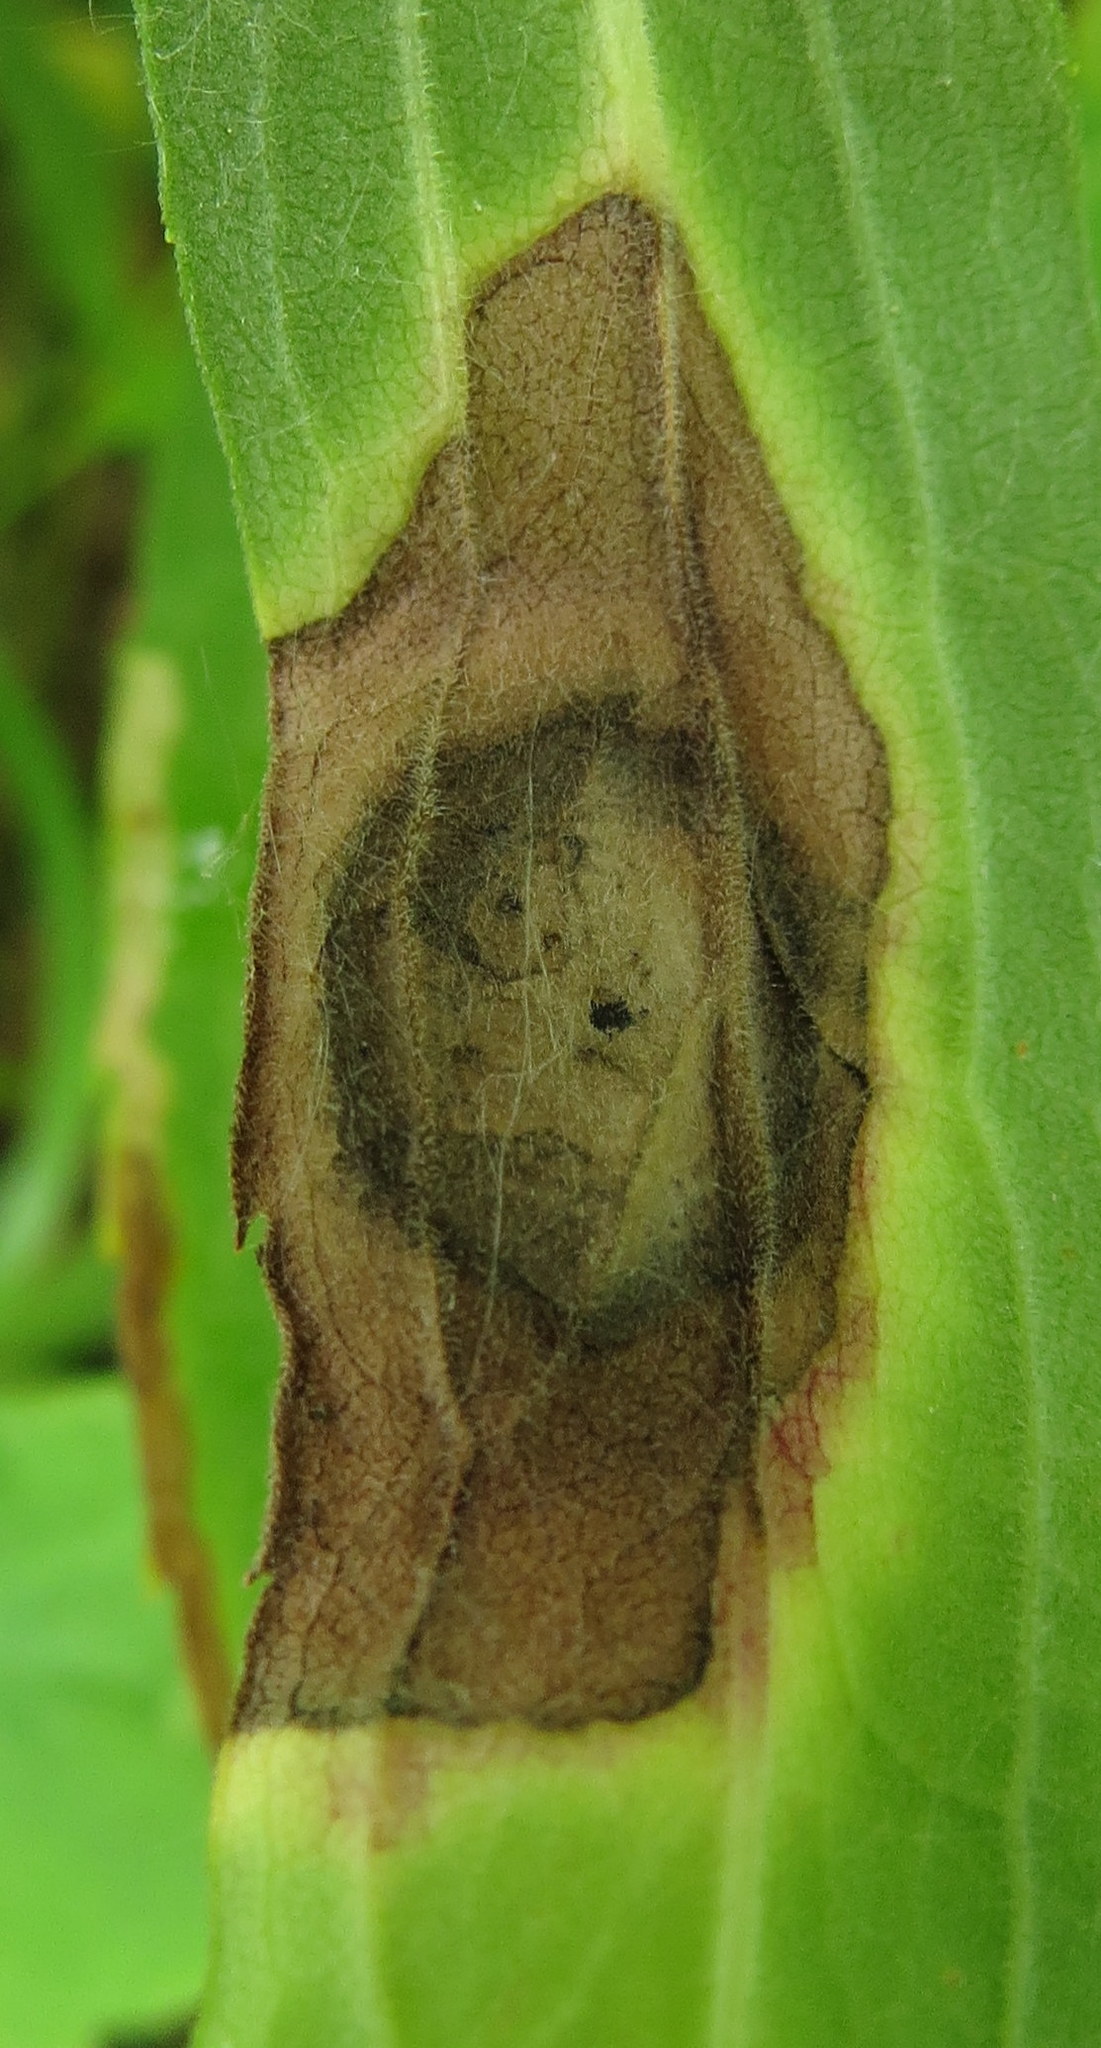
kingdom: Animalia
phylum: Arthropoda
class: Insecta
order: Diptera
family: Cecidomyiidae
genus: Asteromyia
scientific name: Asteromyia carbonifera
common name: Carbonifera goldenrod gall midge
